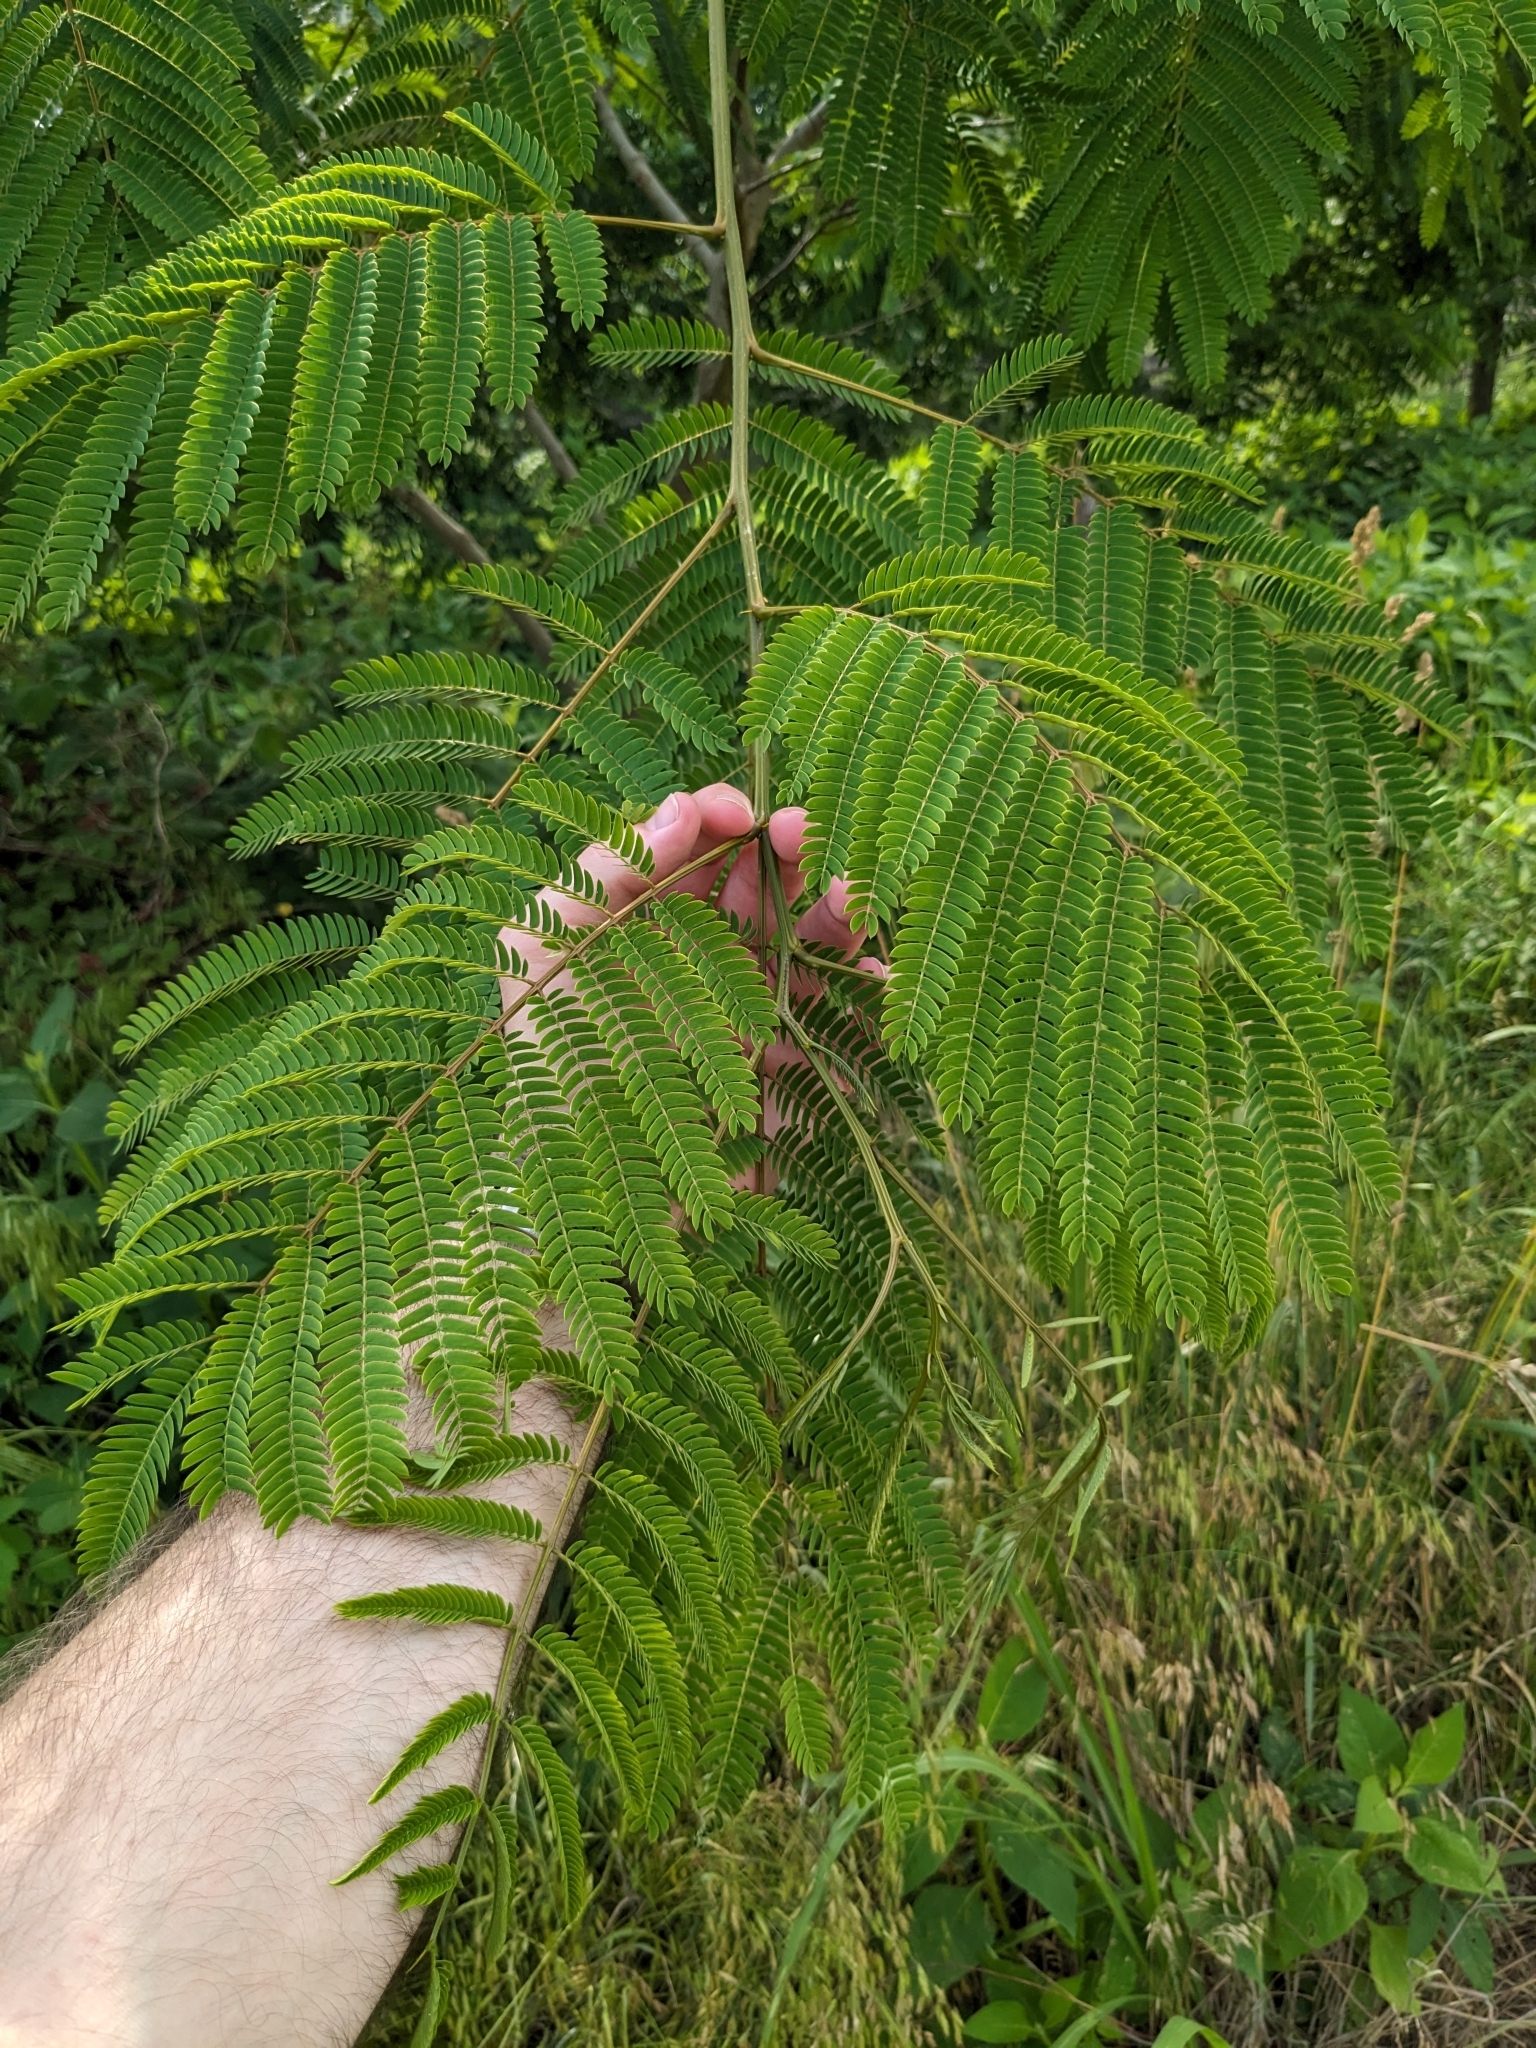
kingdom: Plantae
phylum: Tracheophyta
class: Magnoliopsida
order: Fabales
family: Fabaceae
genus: Albizia
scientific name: Albizia julibrissin
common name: Silktree
